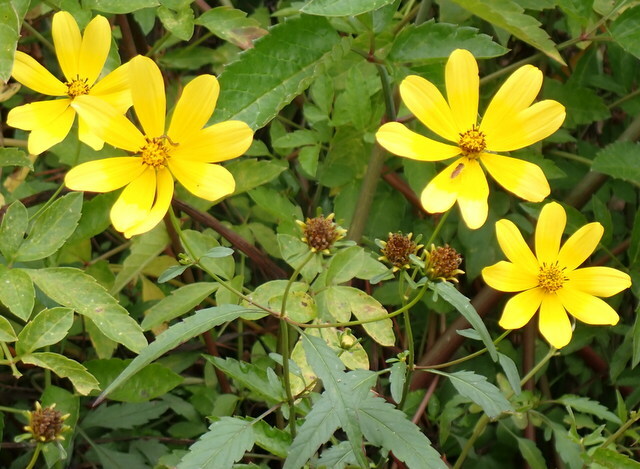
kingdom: Plantae
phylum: Tracheophyta
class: Magnoliopsida
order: Asterales
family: Asteraceae
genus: Bidens
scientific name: Bidens mitis
